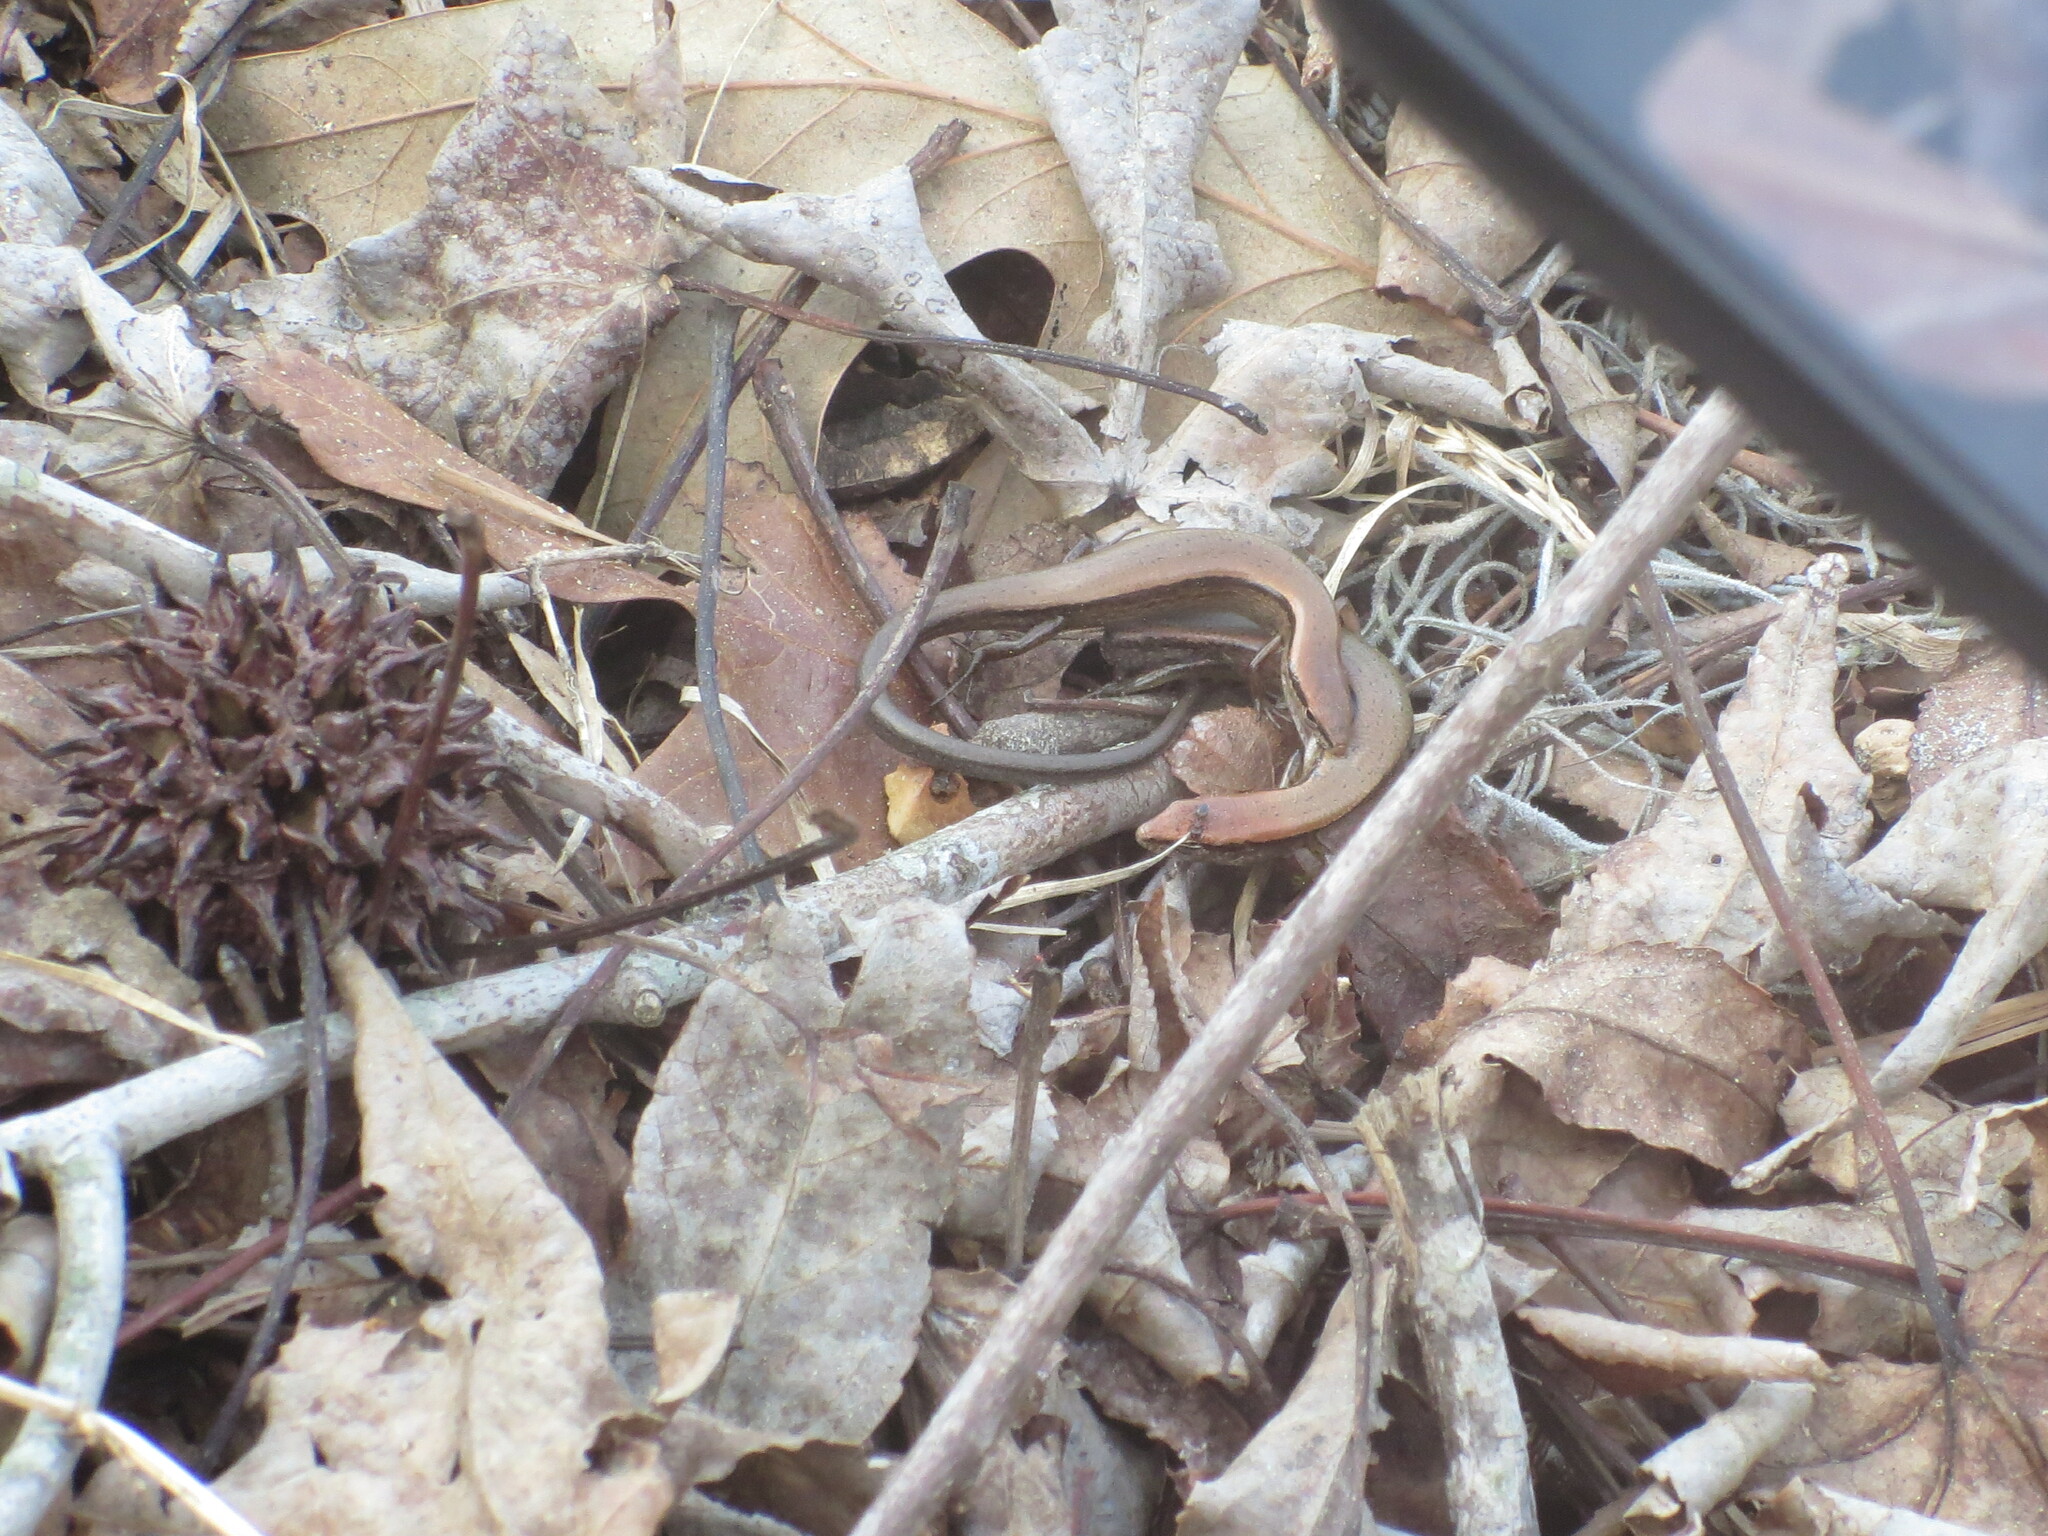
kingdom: Animalia
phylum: Chordata
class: Squamata
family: Scincidae
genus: Scincella
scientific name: Scincella lateralis
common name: Ground skink
